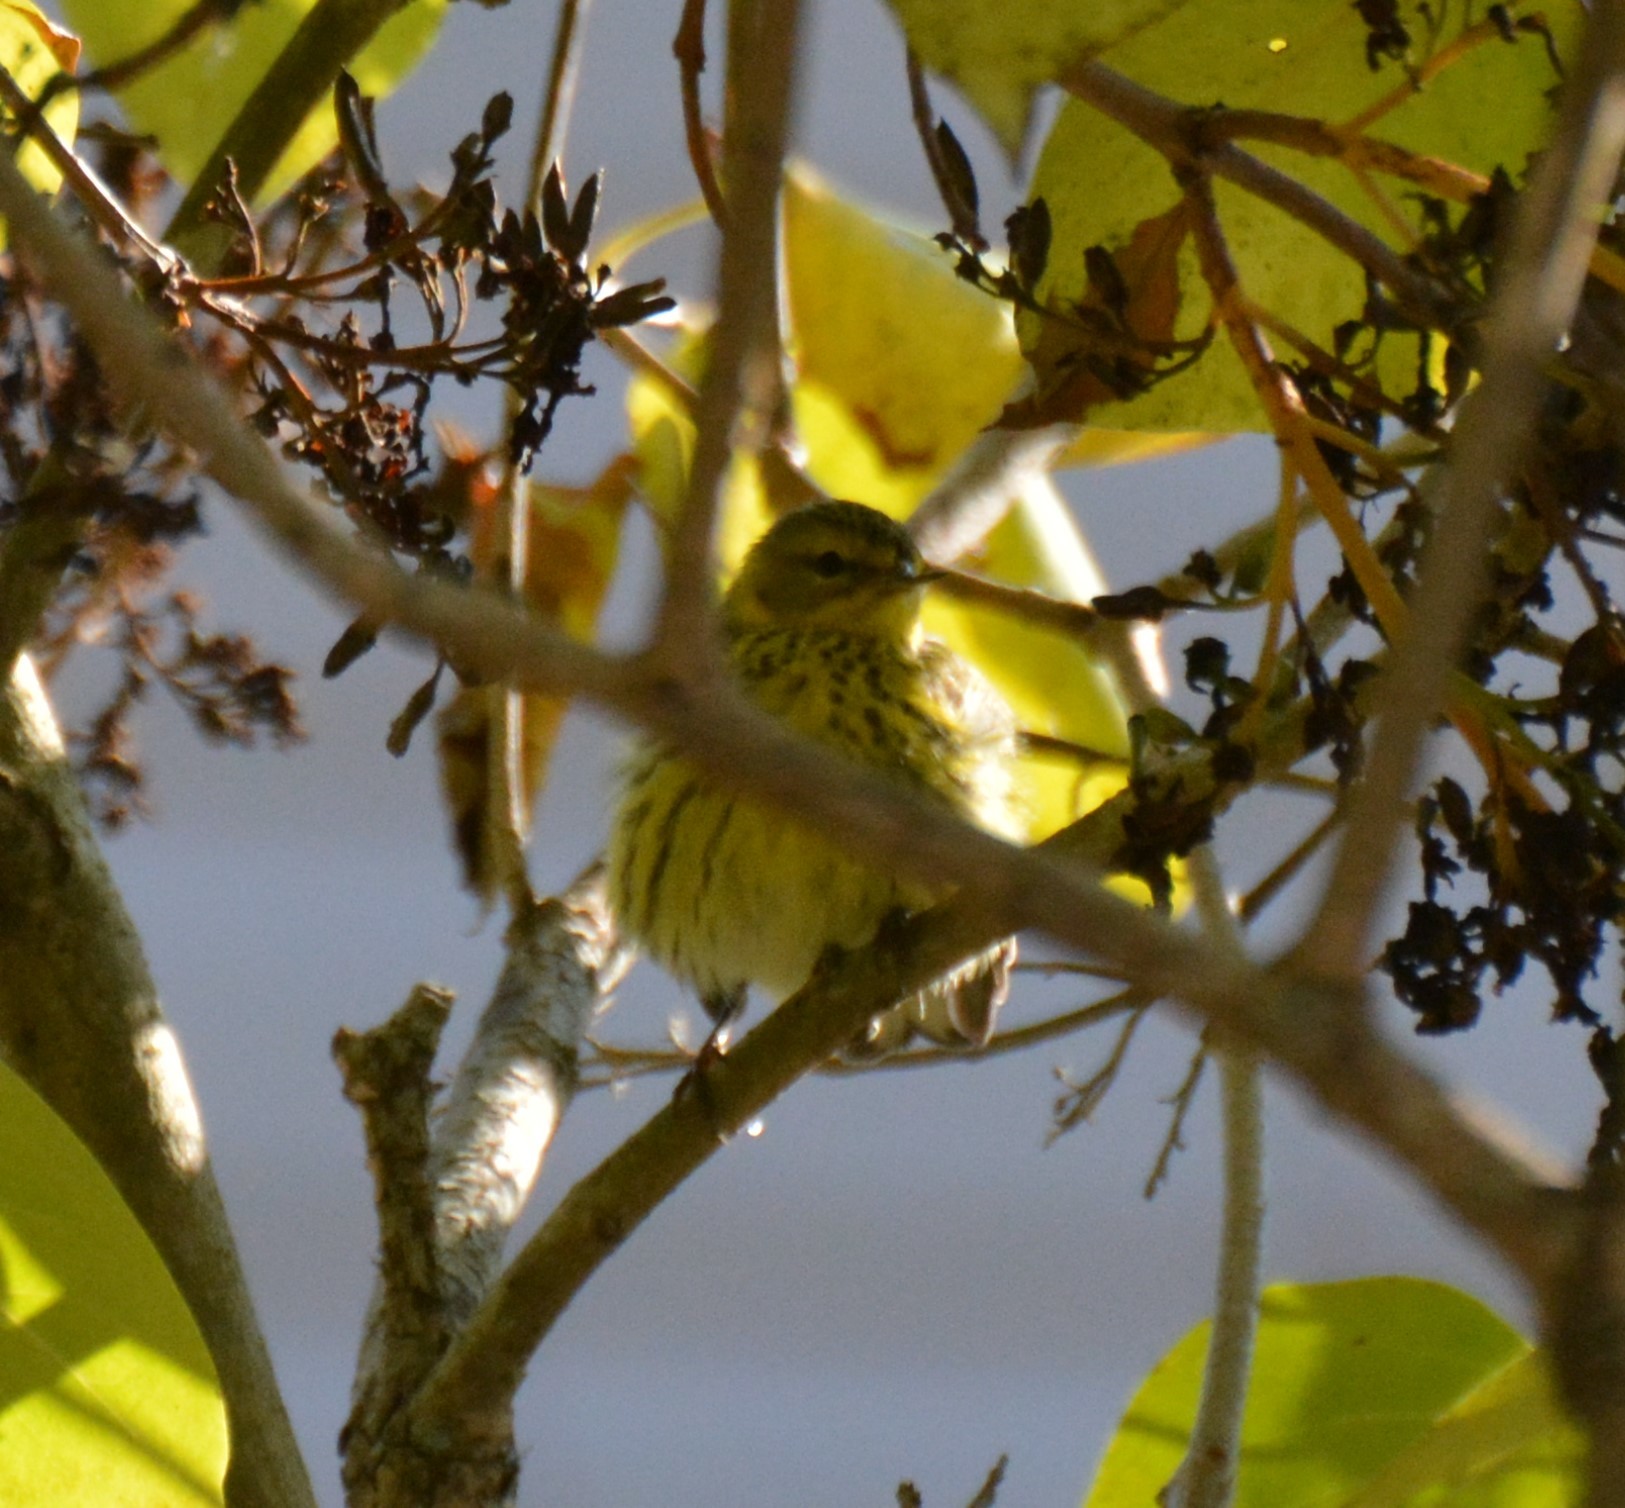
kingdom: Animalia
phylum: Chordata
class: Aves
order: Passeriformes
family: Parulidae
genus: Setophaga
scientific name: Setophaga tigrina
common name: Cape may warbler
